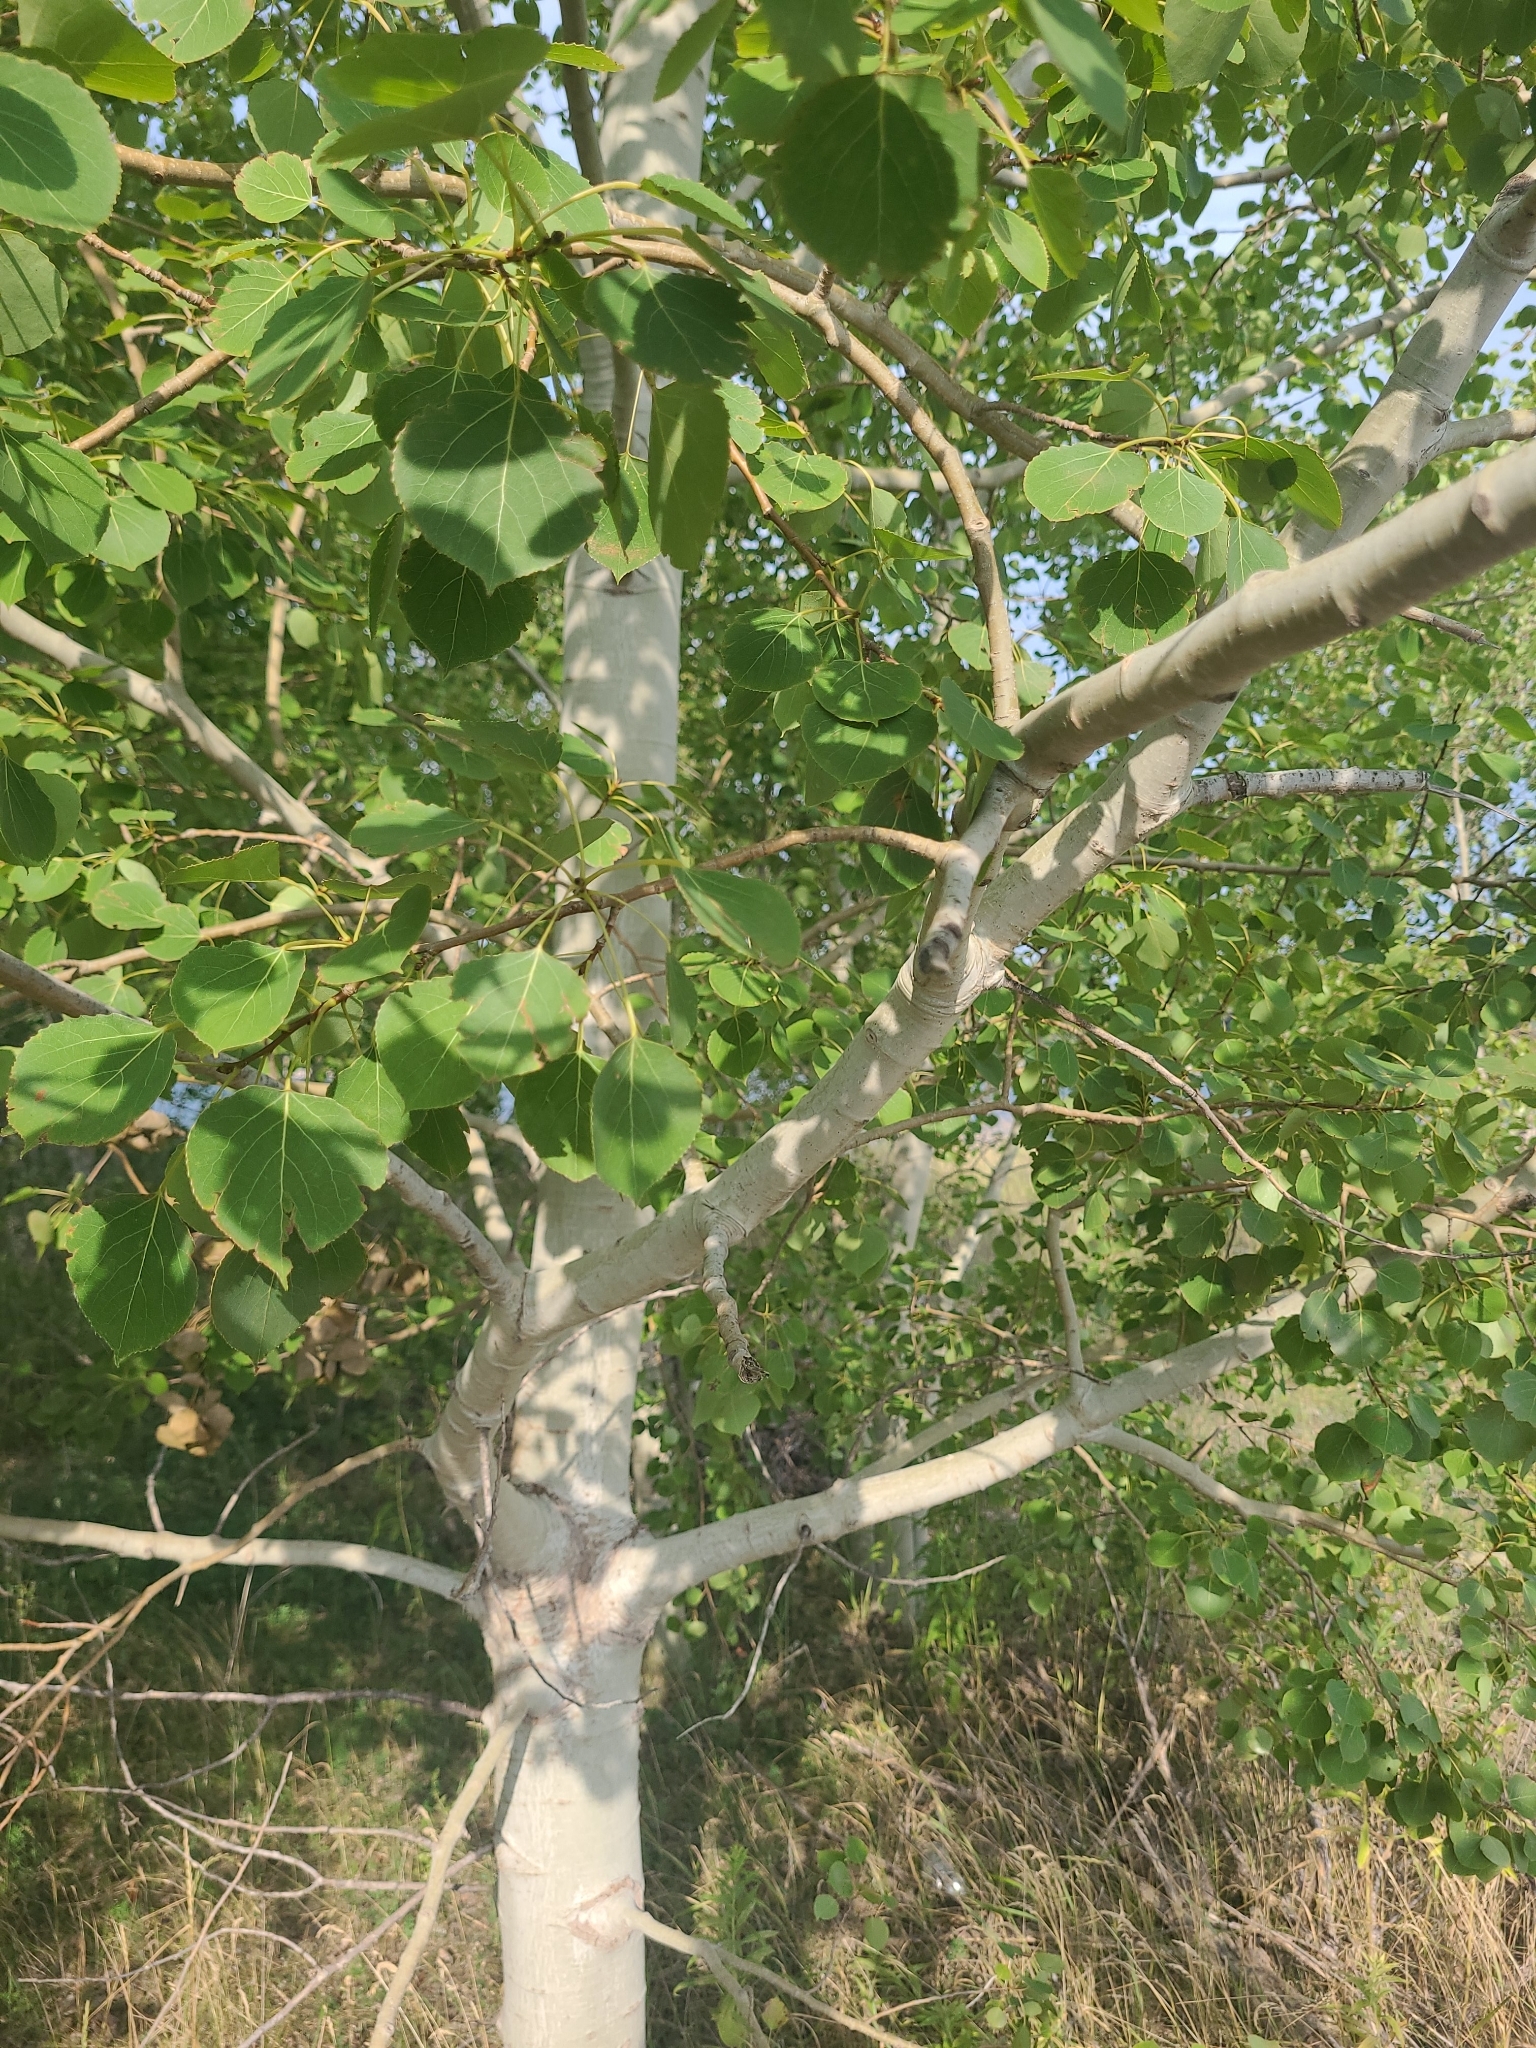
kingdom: Plantae
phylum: Tracheophyta
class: Magnoliopsida
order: Malpighiales
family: Salicaceae
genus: Populus
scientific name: Populus tremuloides
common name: Quaking aspen
